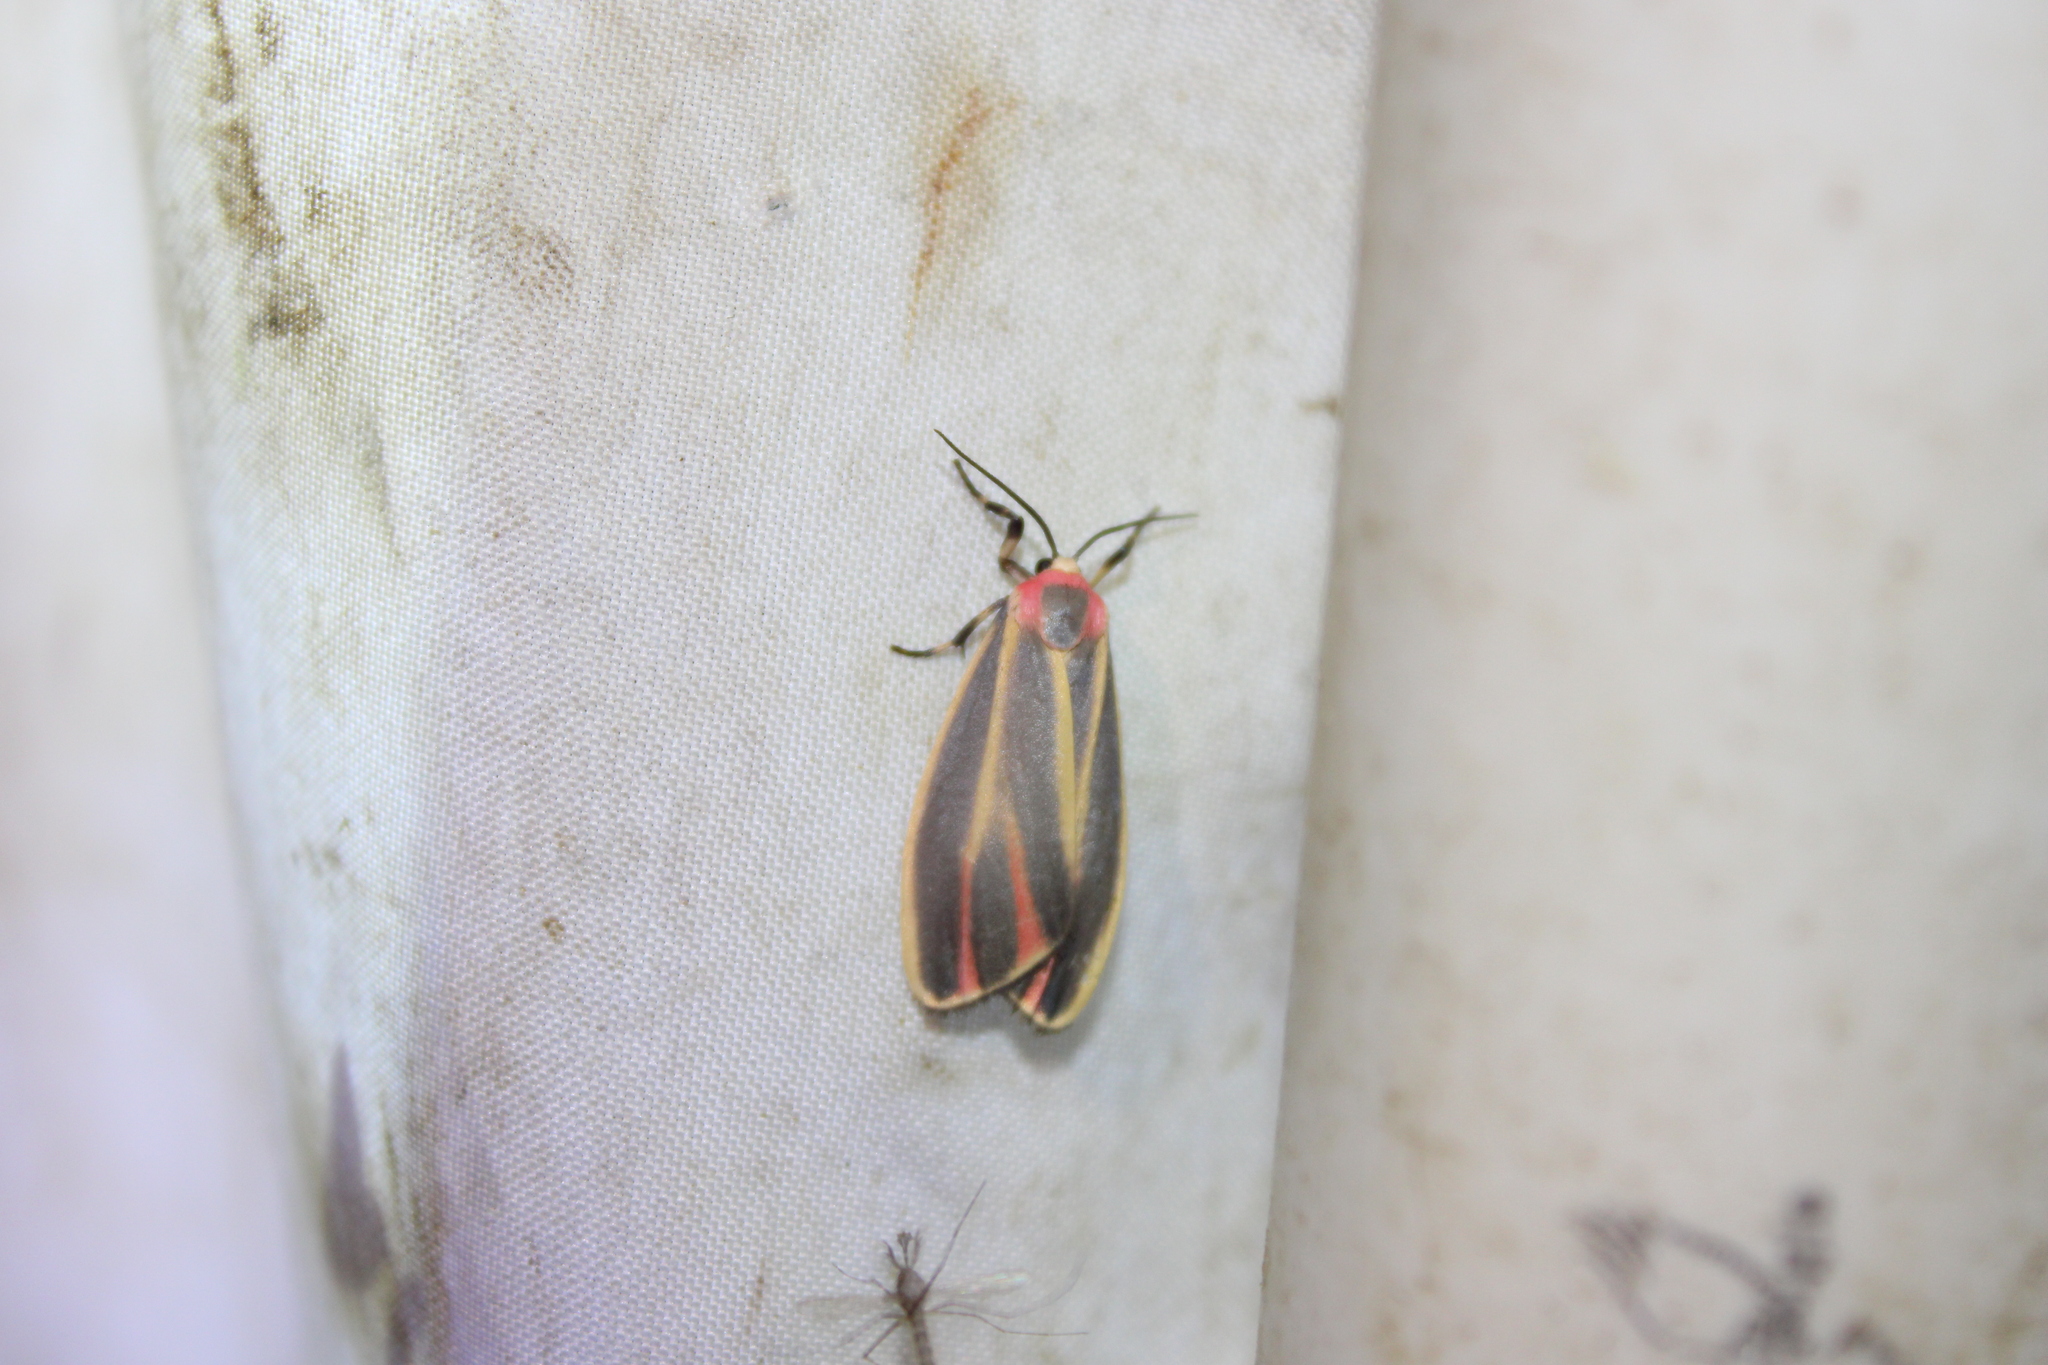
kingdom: Animalia
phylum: Arthropoda
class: Insecta
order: Lepidoptera
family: Erebidae
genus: Hypoprepia
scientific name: Hypoprepia fucosa
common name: Painted lichen moth
